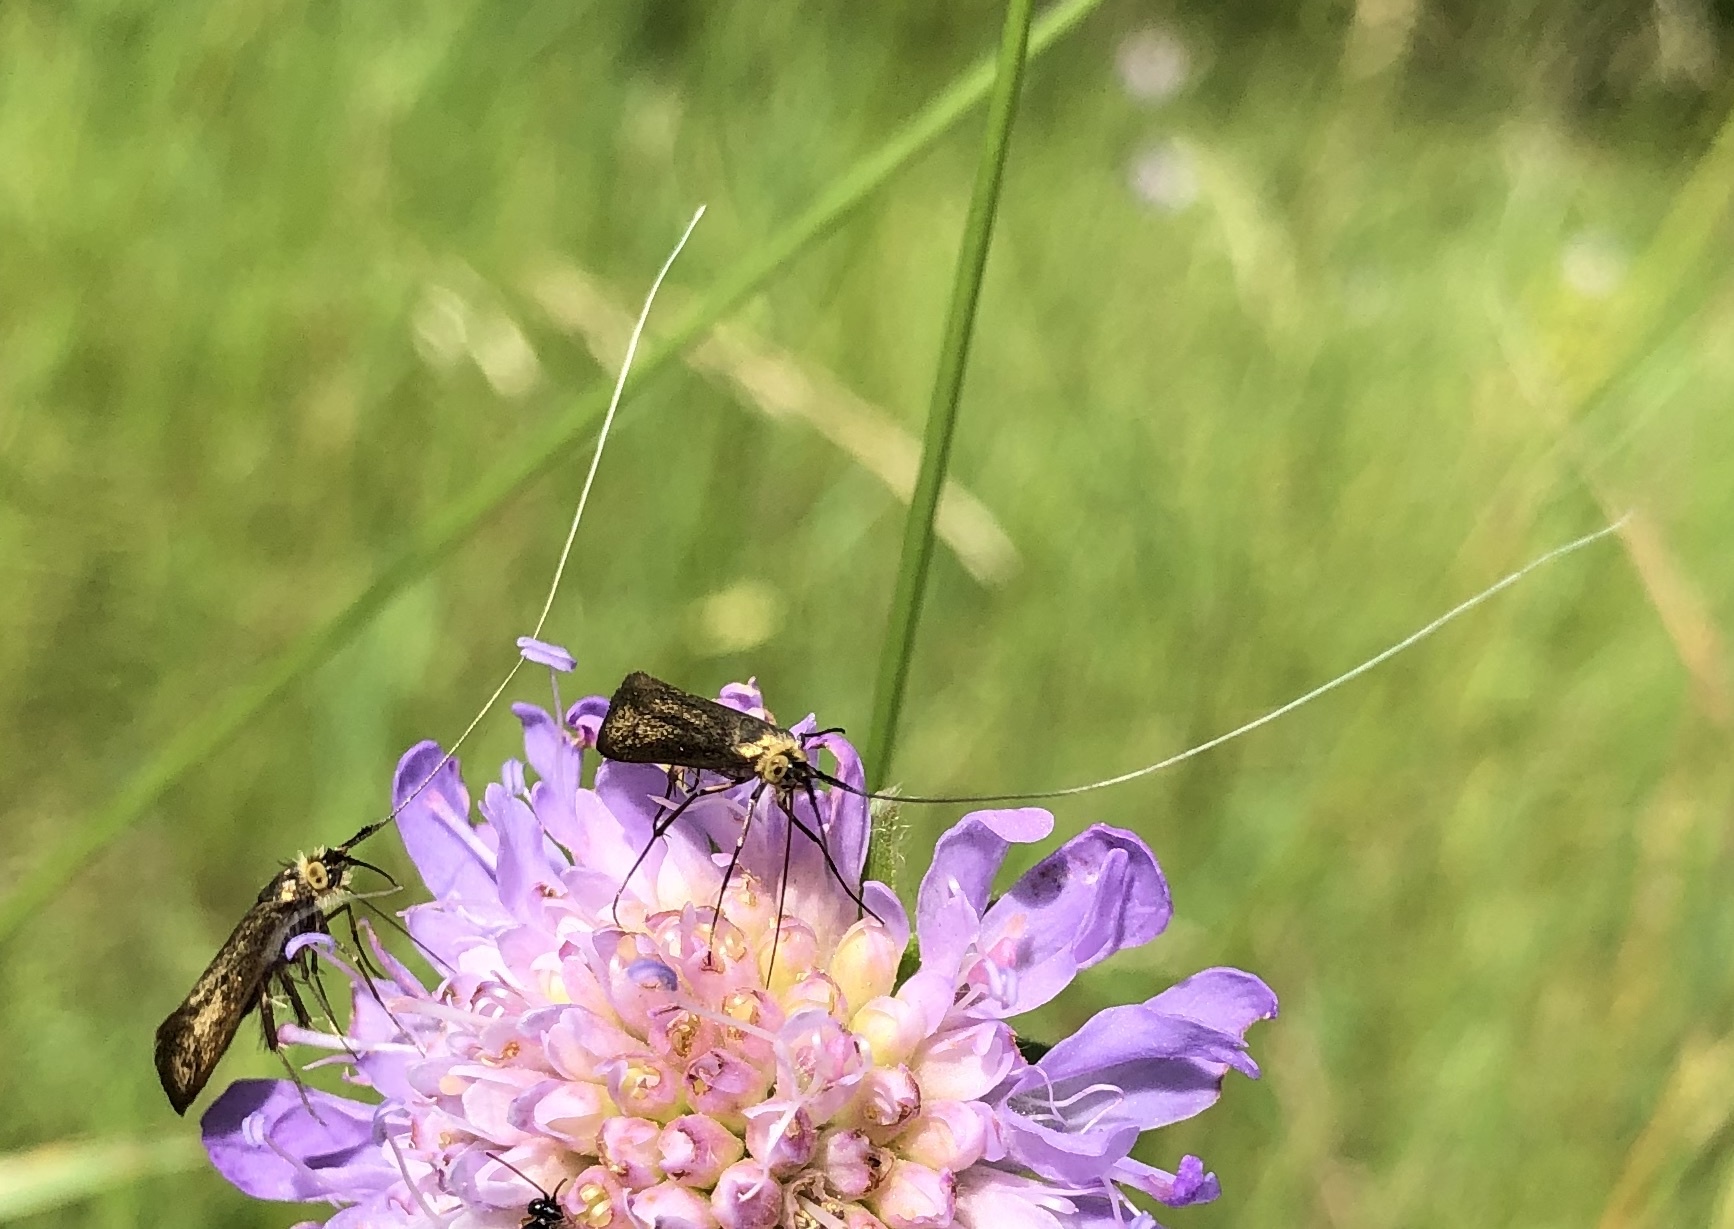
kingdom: Animalia
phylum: Arthropoda
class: Insecta
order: Lepidoptera
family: Adelidae
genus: Nemophora
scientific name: Nemophora metallica
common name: Brassy long-horn
